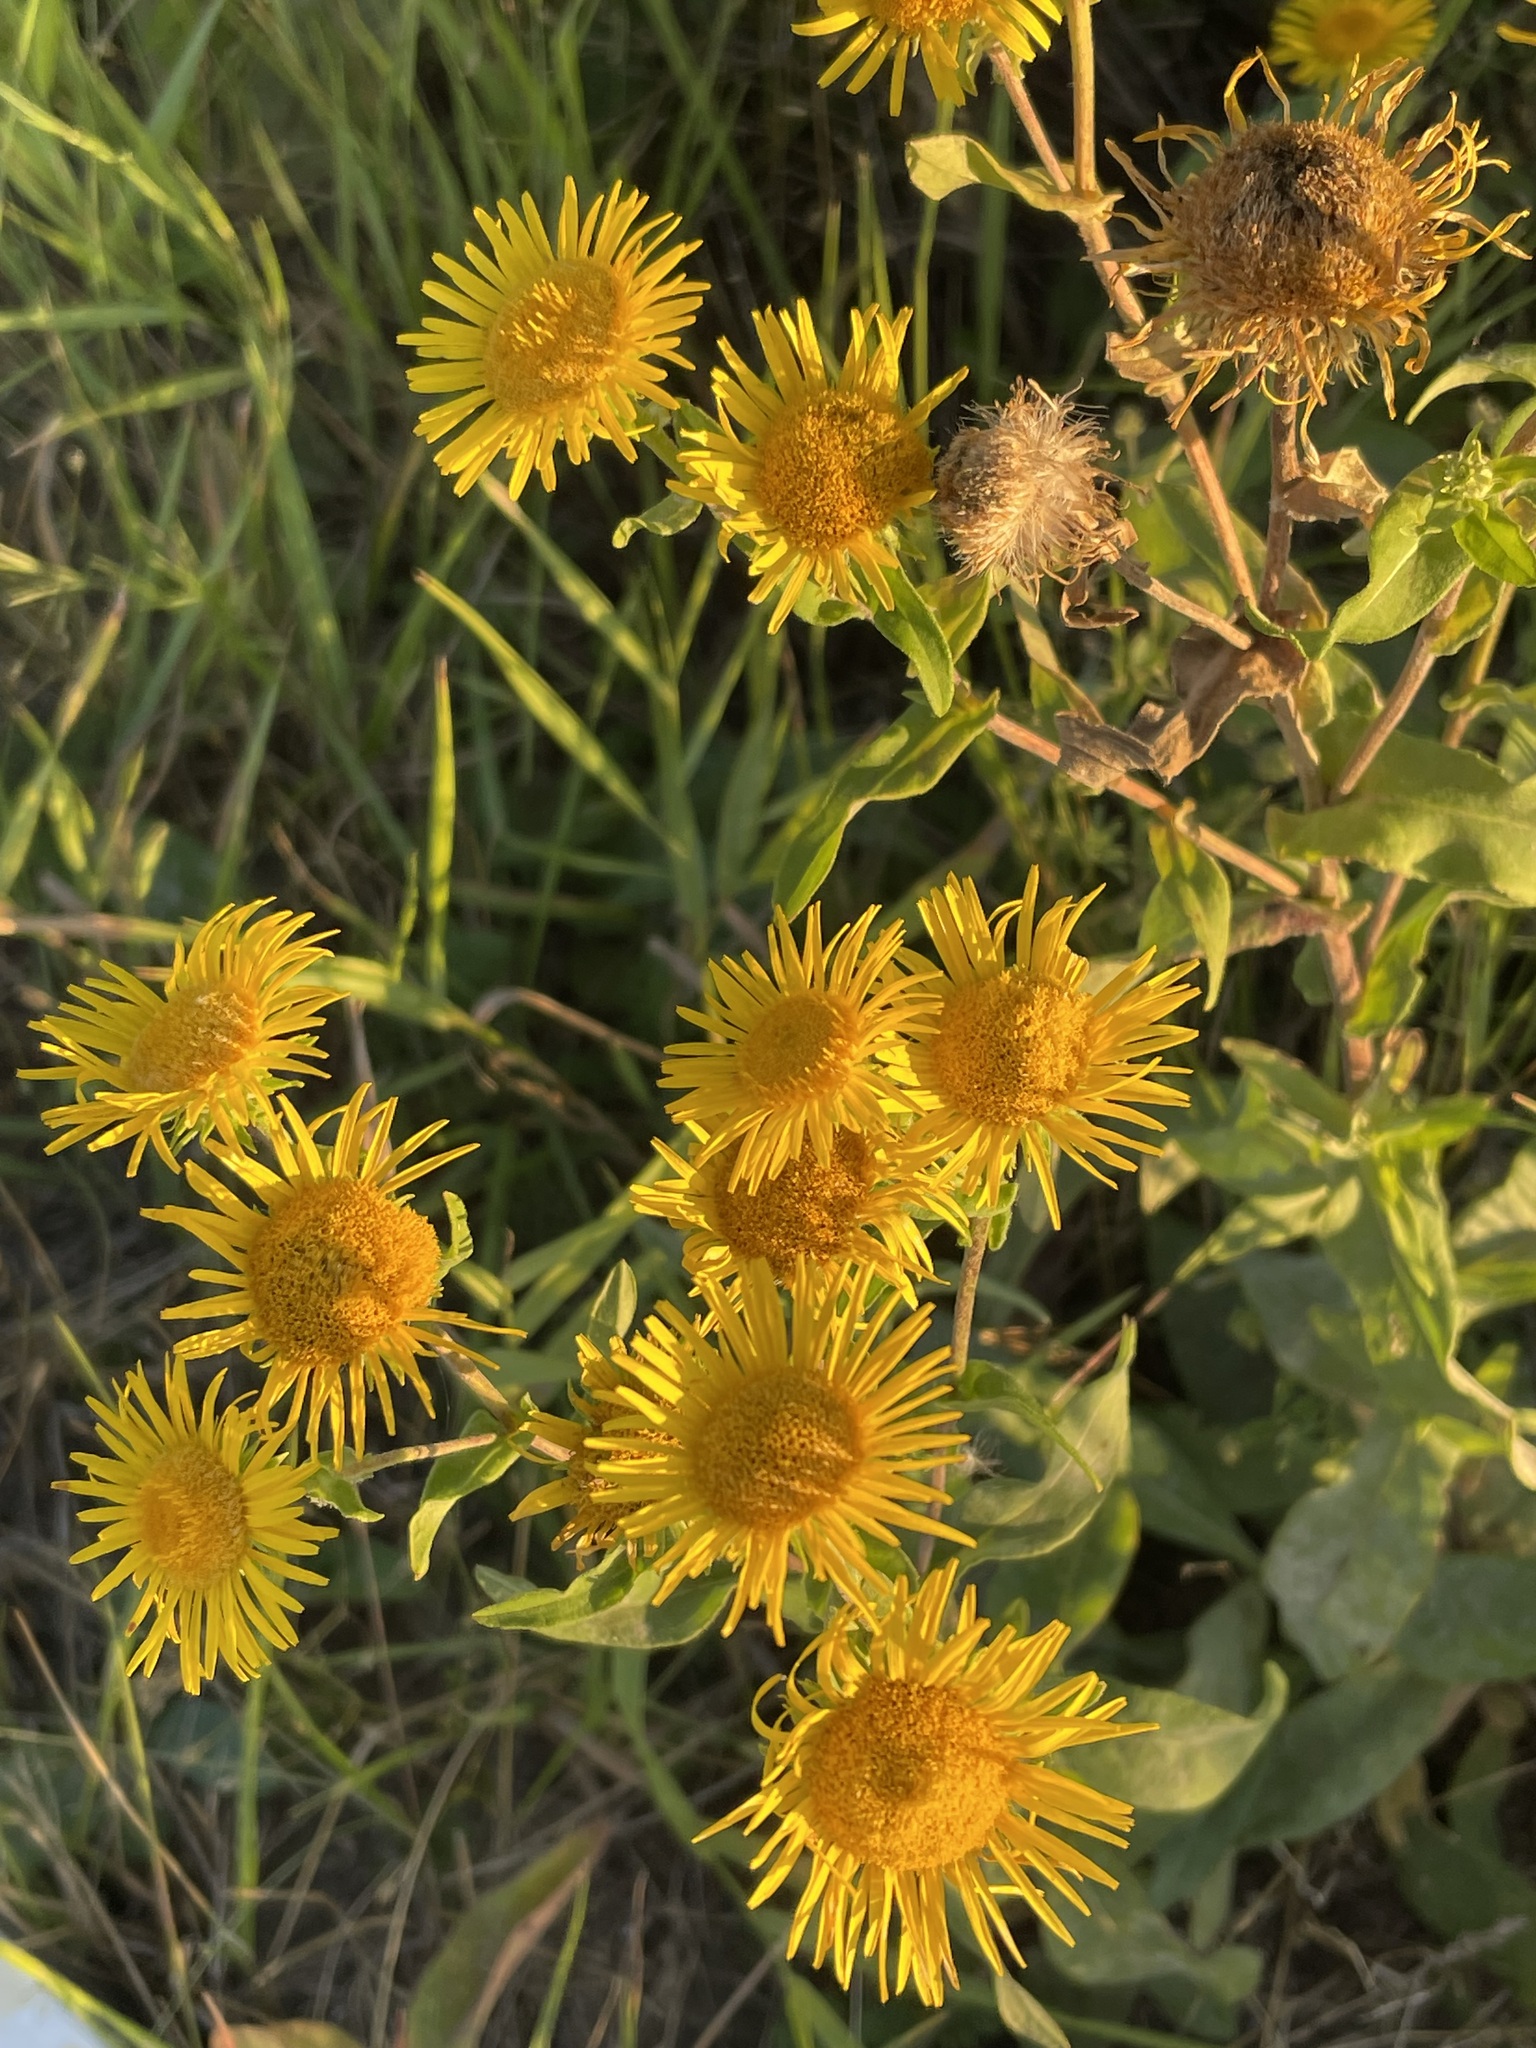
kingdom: Plantae
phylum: Tracheophyta
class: Magnoliopsida
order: Asterales
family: Asteraceae
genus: Pentanema
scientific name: Pentanema britannicum
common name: British elecampane
